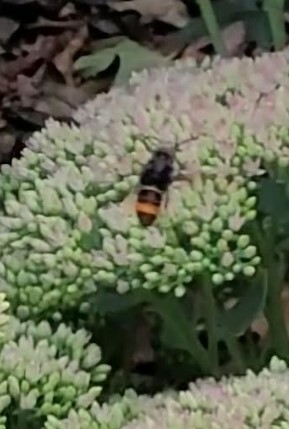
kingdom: Animalia
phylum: Arthropoda
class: Insecta
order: Hymenoptera
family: Vespidae
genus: Vespa
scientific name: Vespa velutina
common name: Asian hornet
